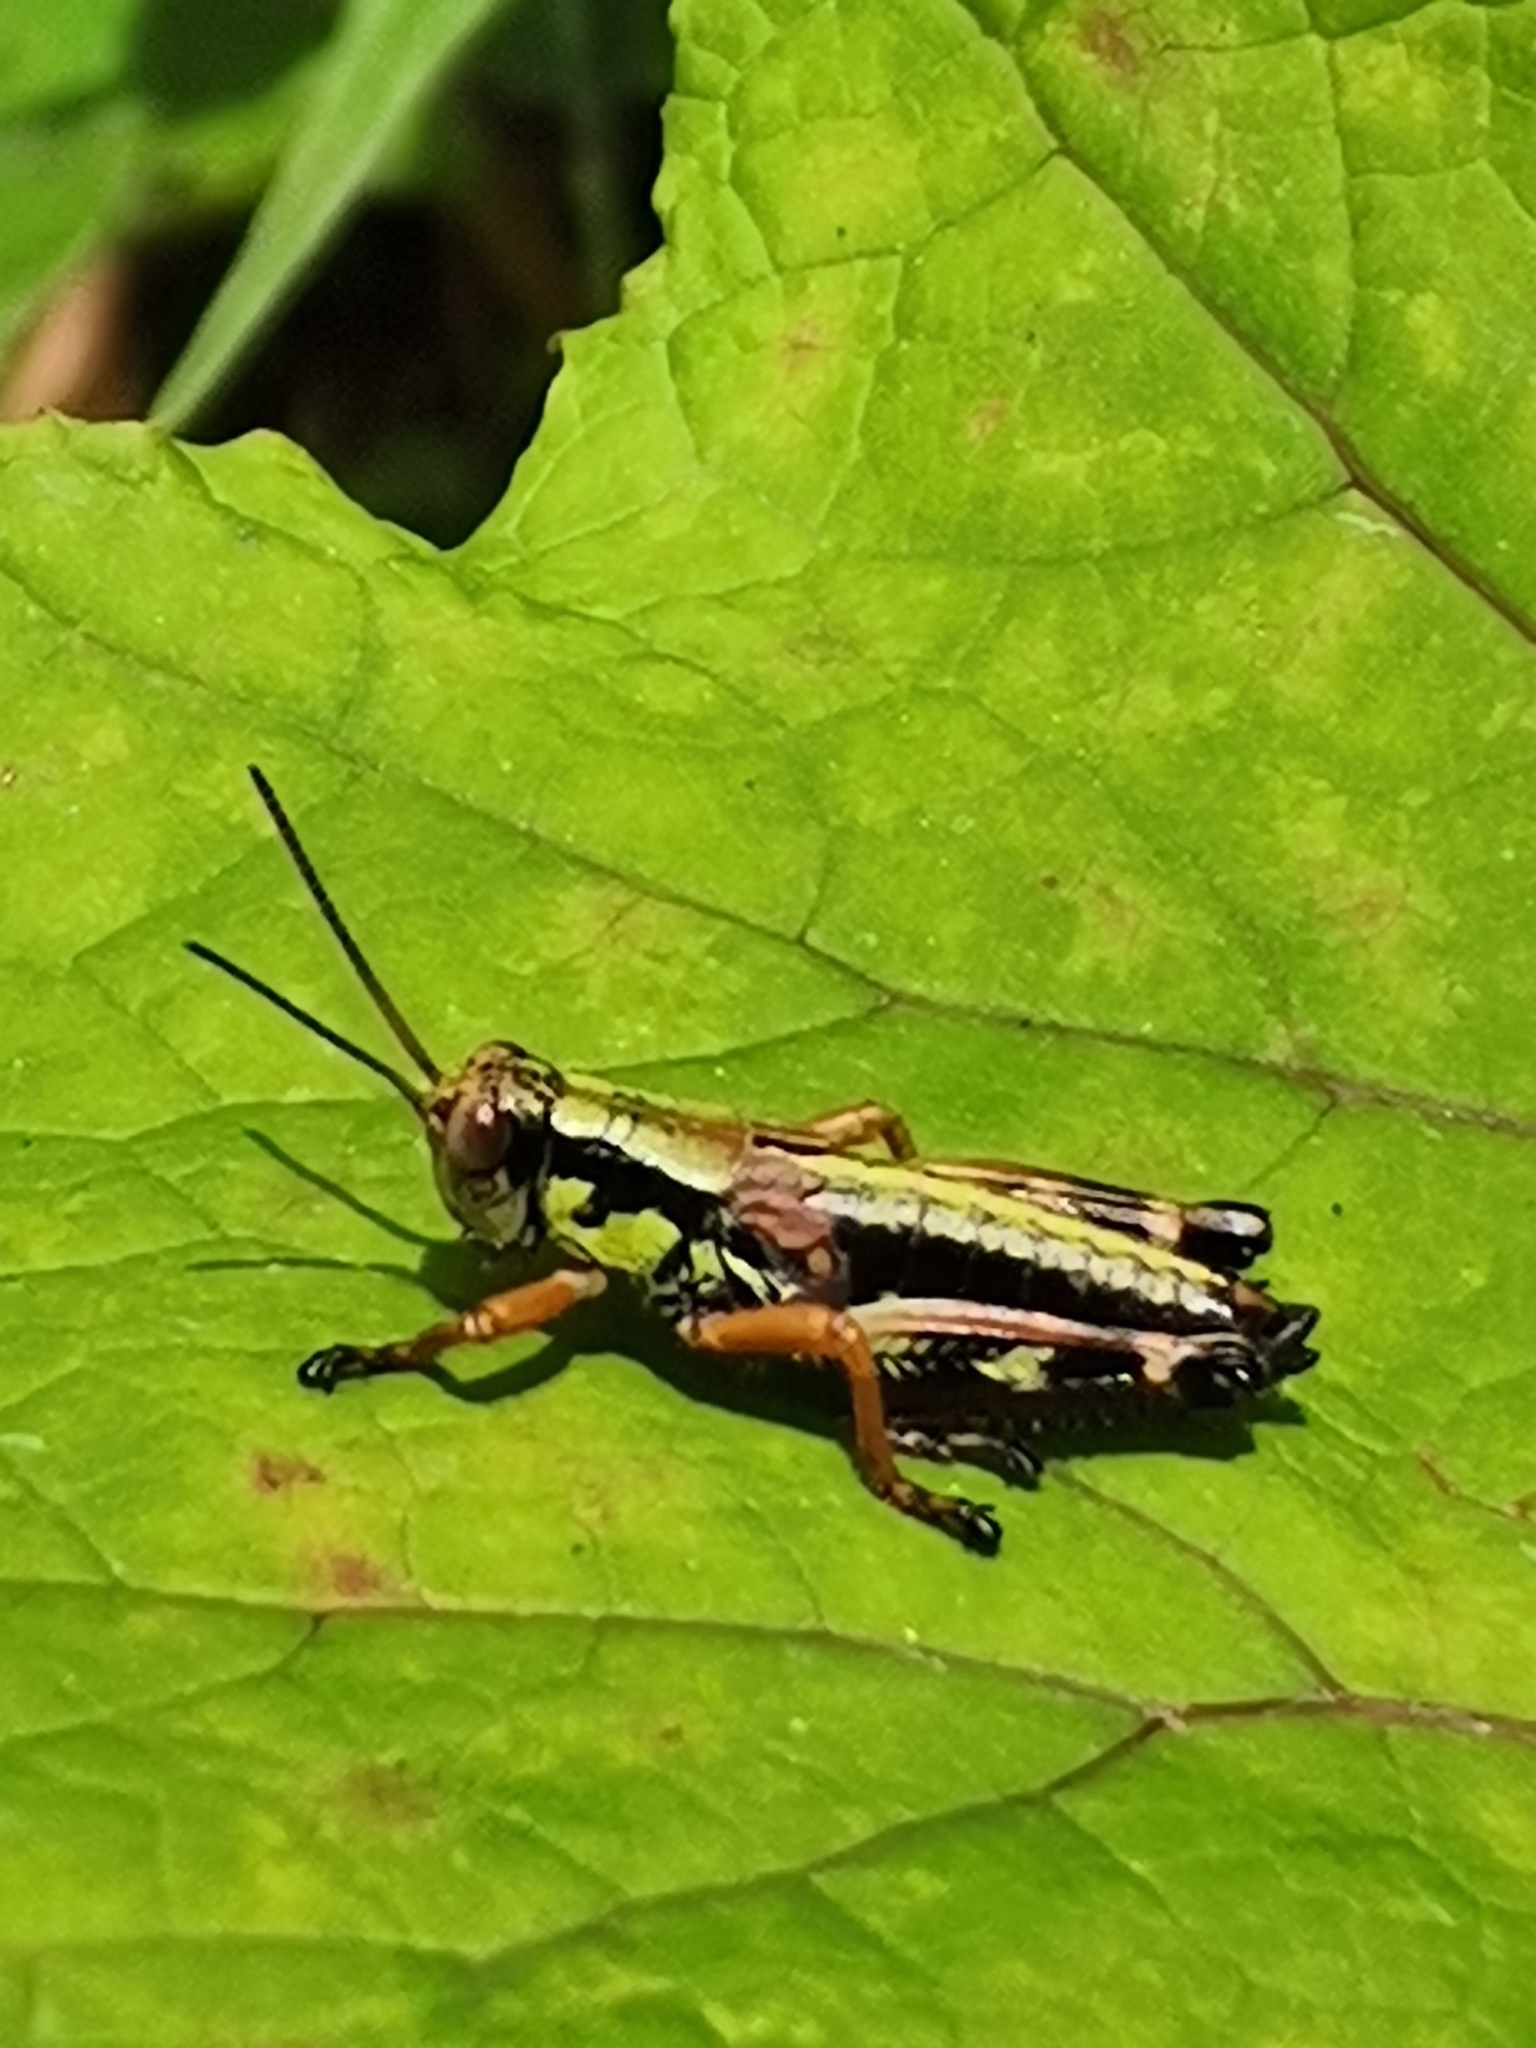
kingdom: Animalia
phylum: Arthropoda
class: Insecta
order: Orthoptera
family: Acrididae
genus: Miramella
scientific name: Miramella alpina
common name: Green mountain grasshopper
